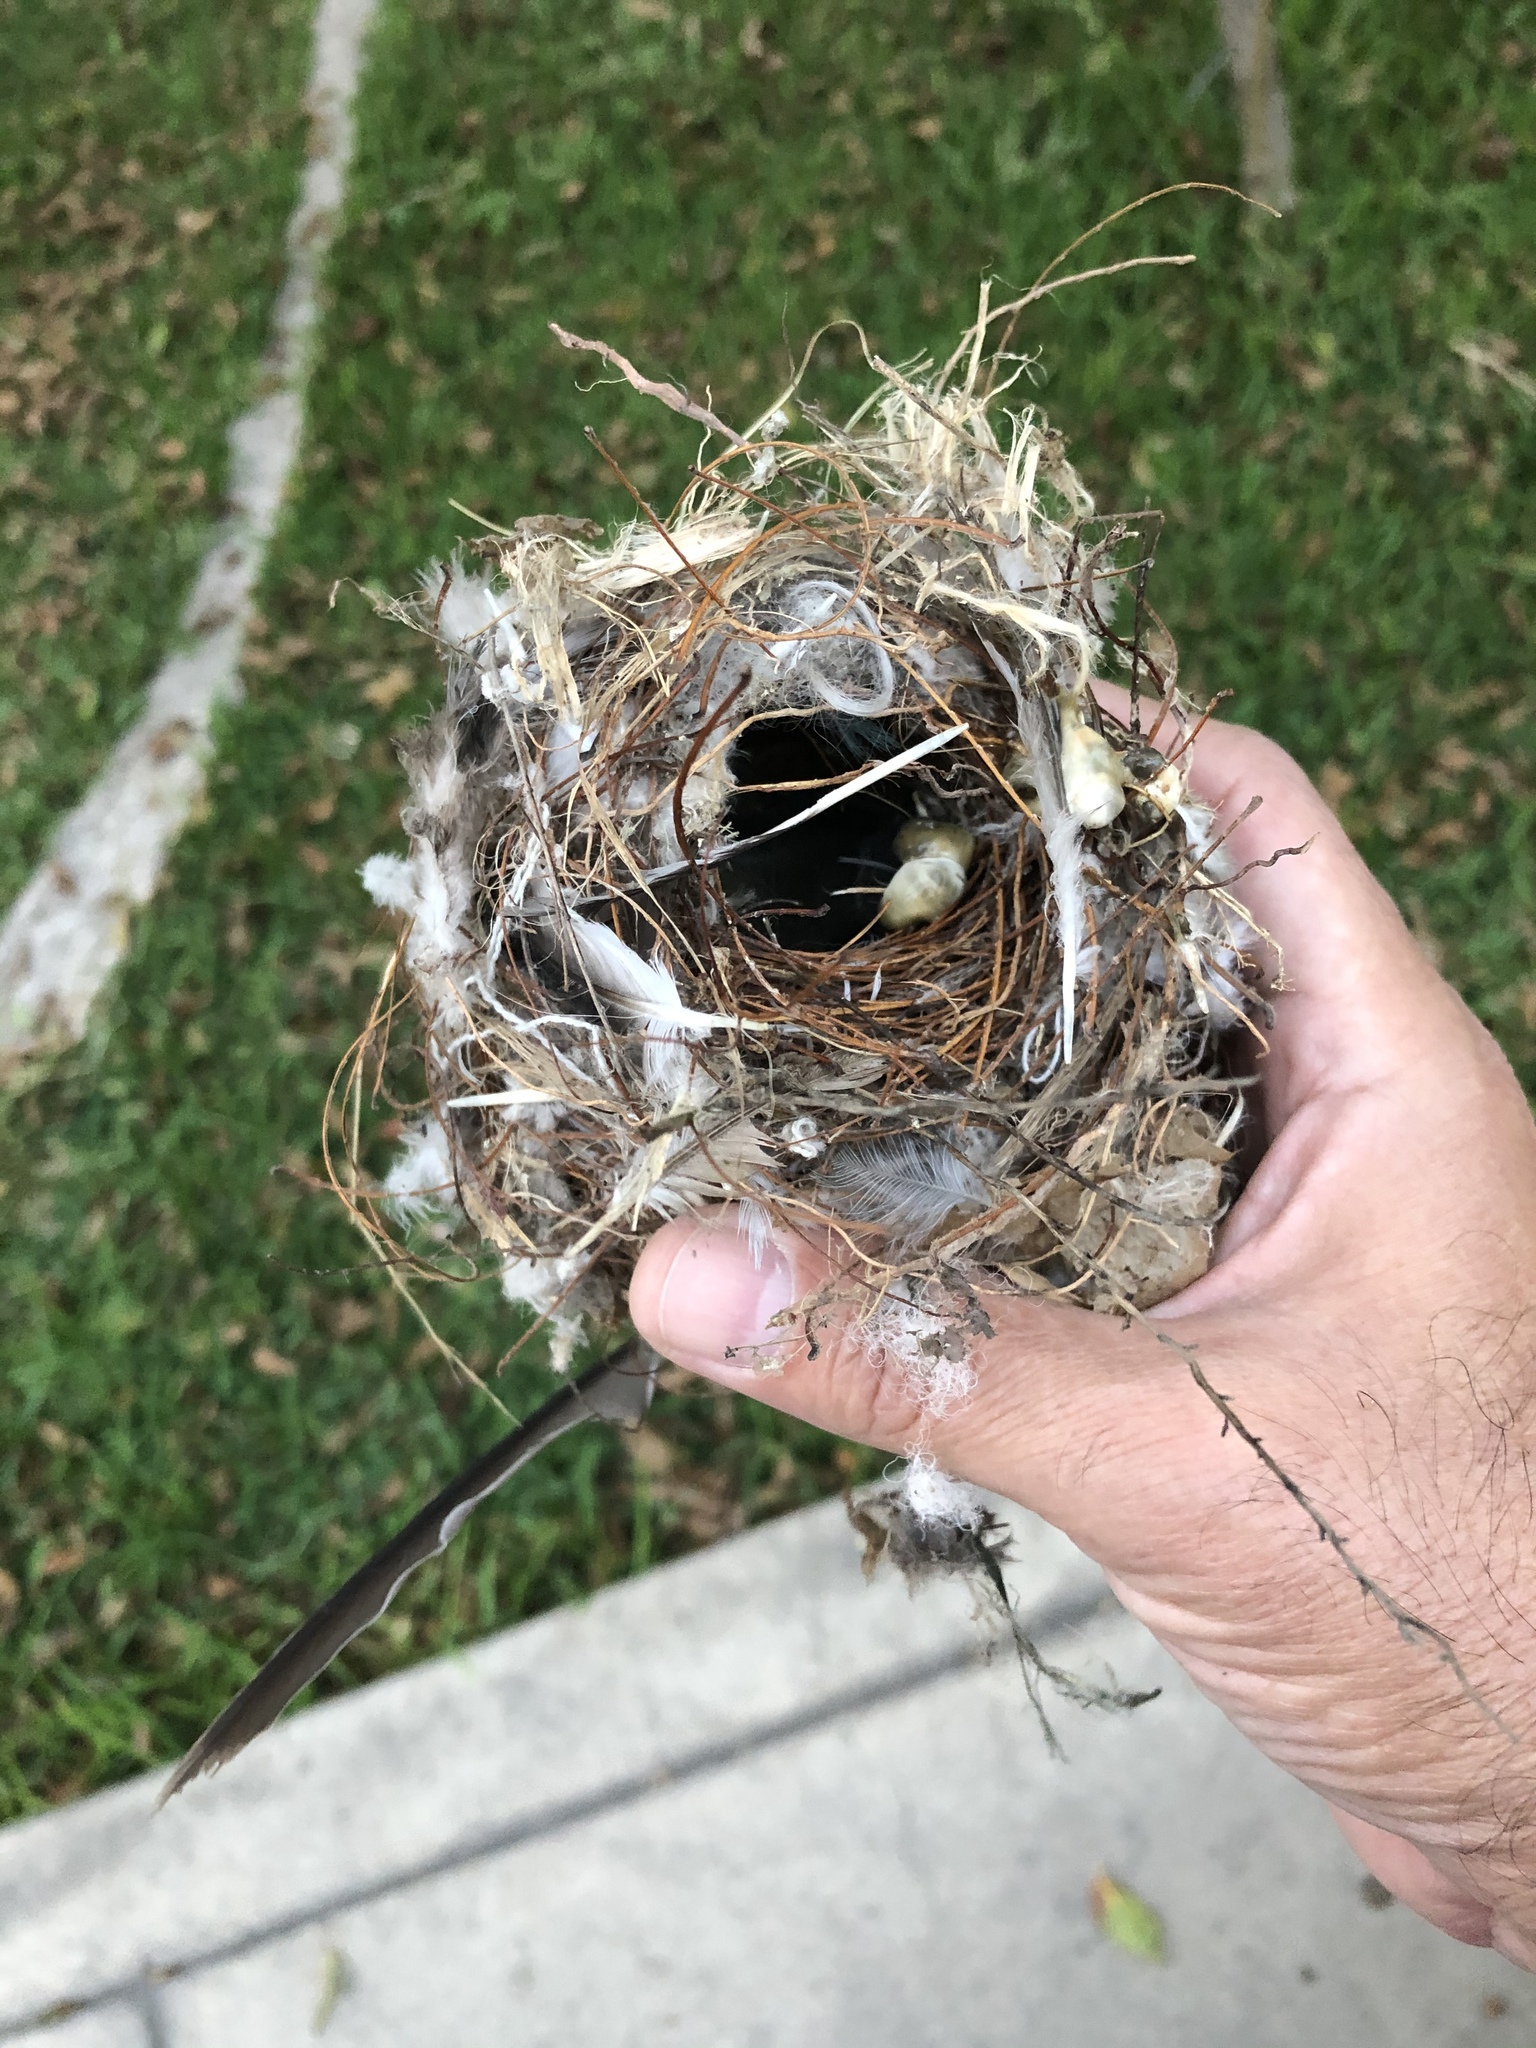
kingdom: Animalia
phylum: Chordata
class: Aves
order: Passeriformes
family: Thraupidae
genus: Coereba
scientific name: Coereba flaveola
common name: Bananaquit
